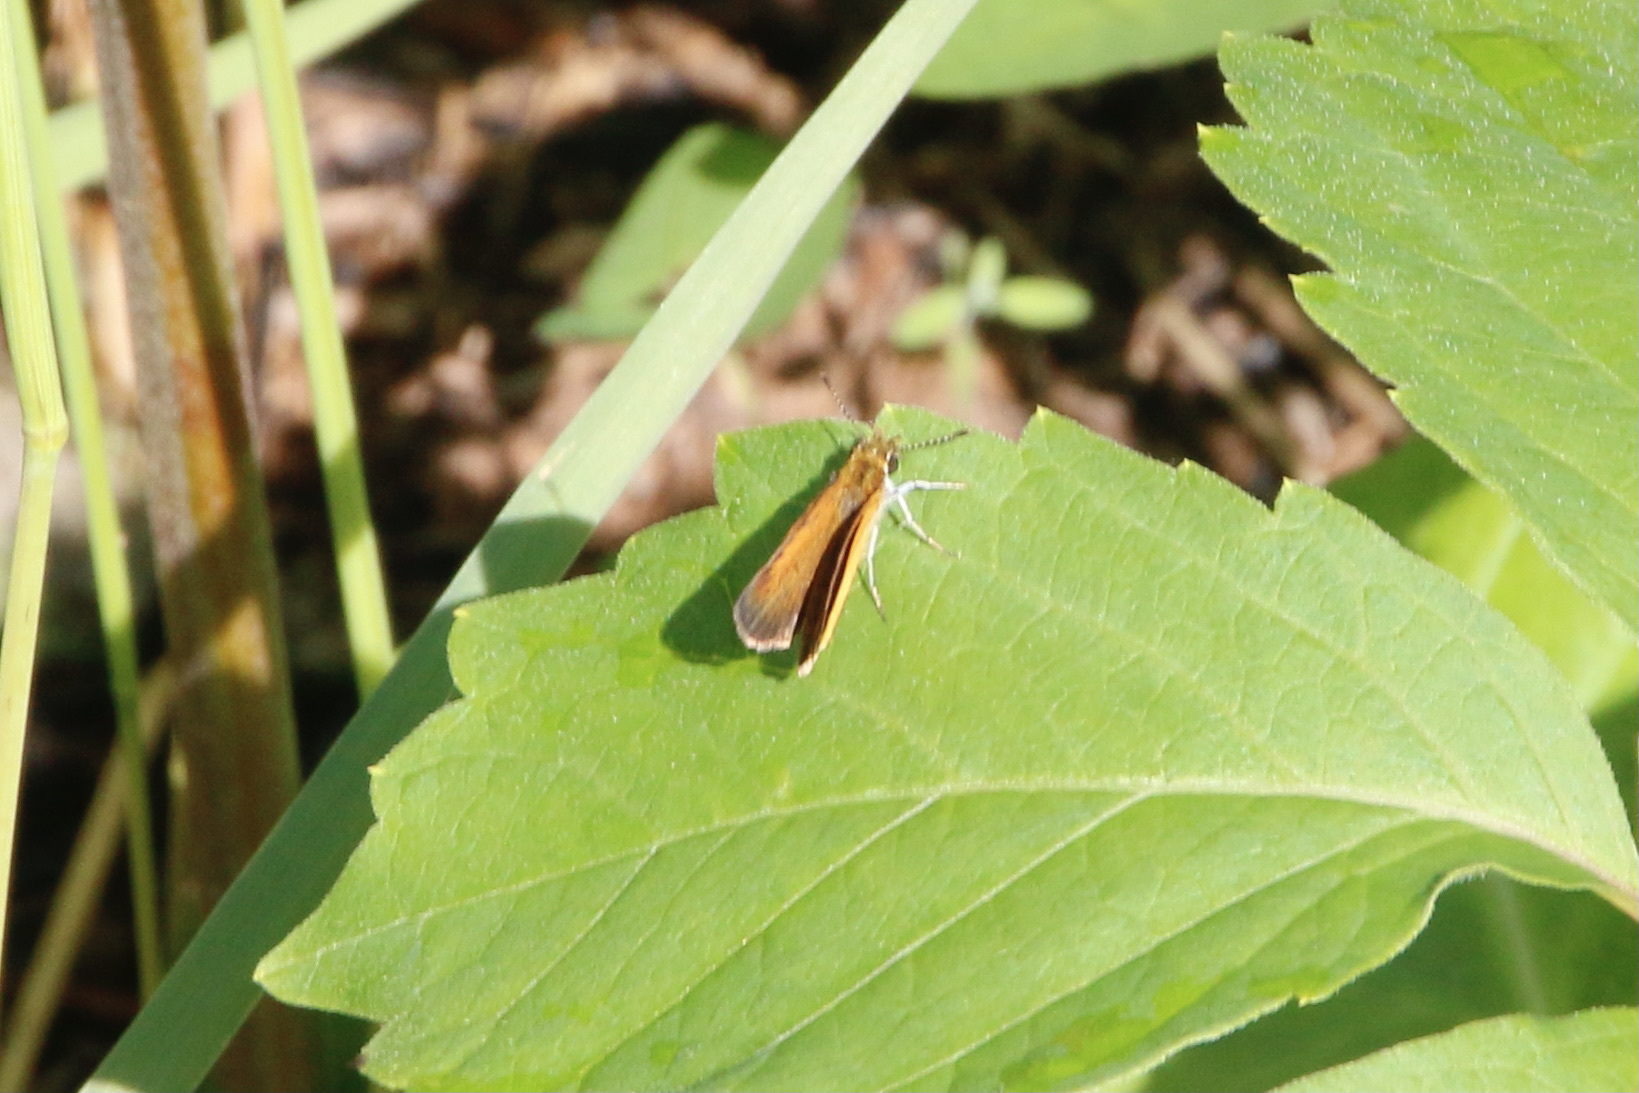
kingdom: Animalia
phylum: Arthropoda
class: Insecta
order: Lepidoptera
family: Hesperiidae
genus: Ancyloxypha
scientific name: Ancyloxypha numitor
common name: Least skipper
